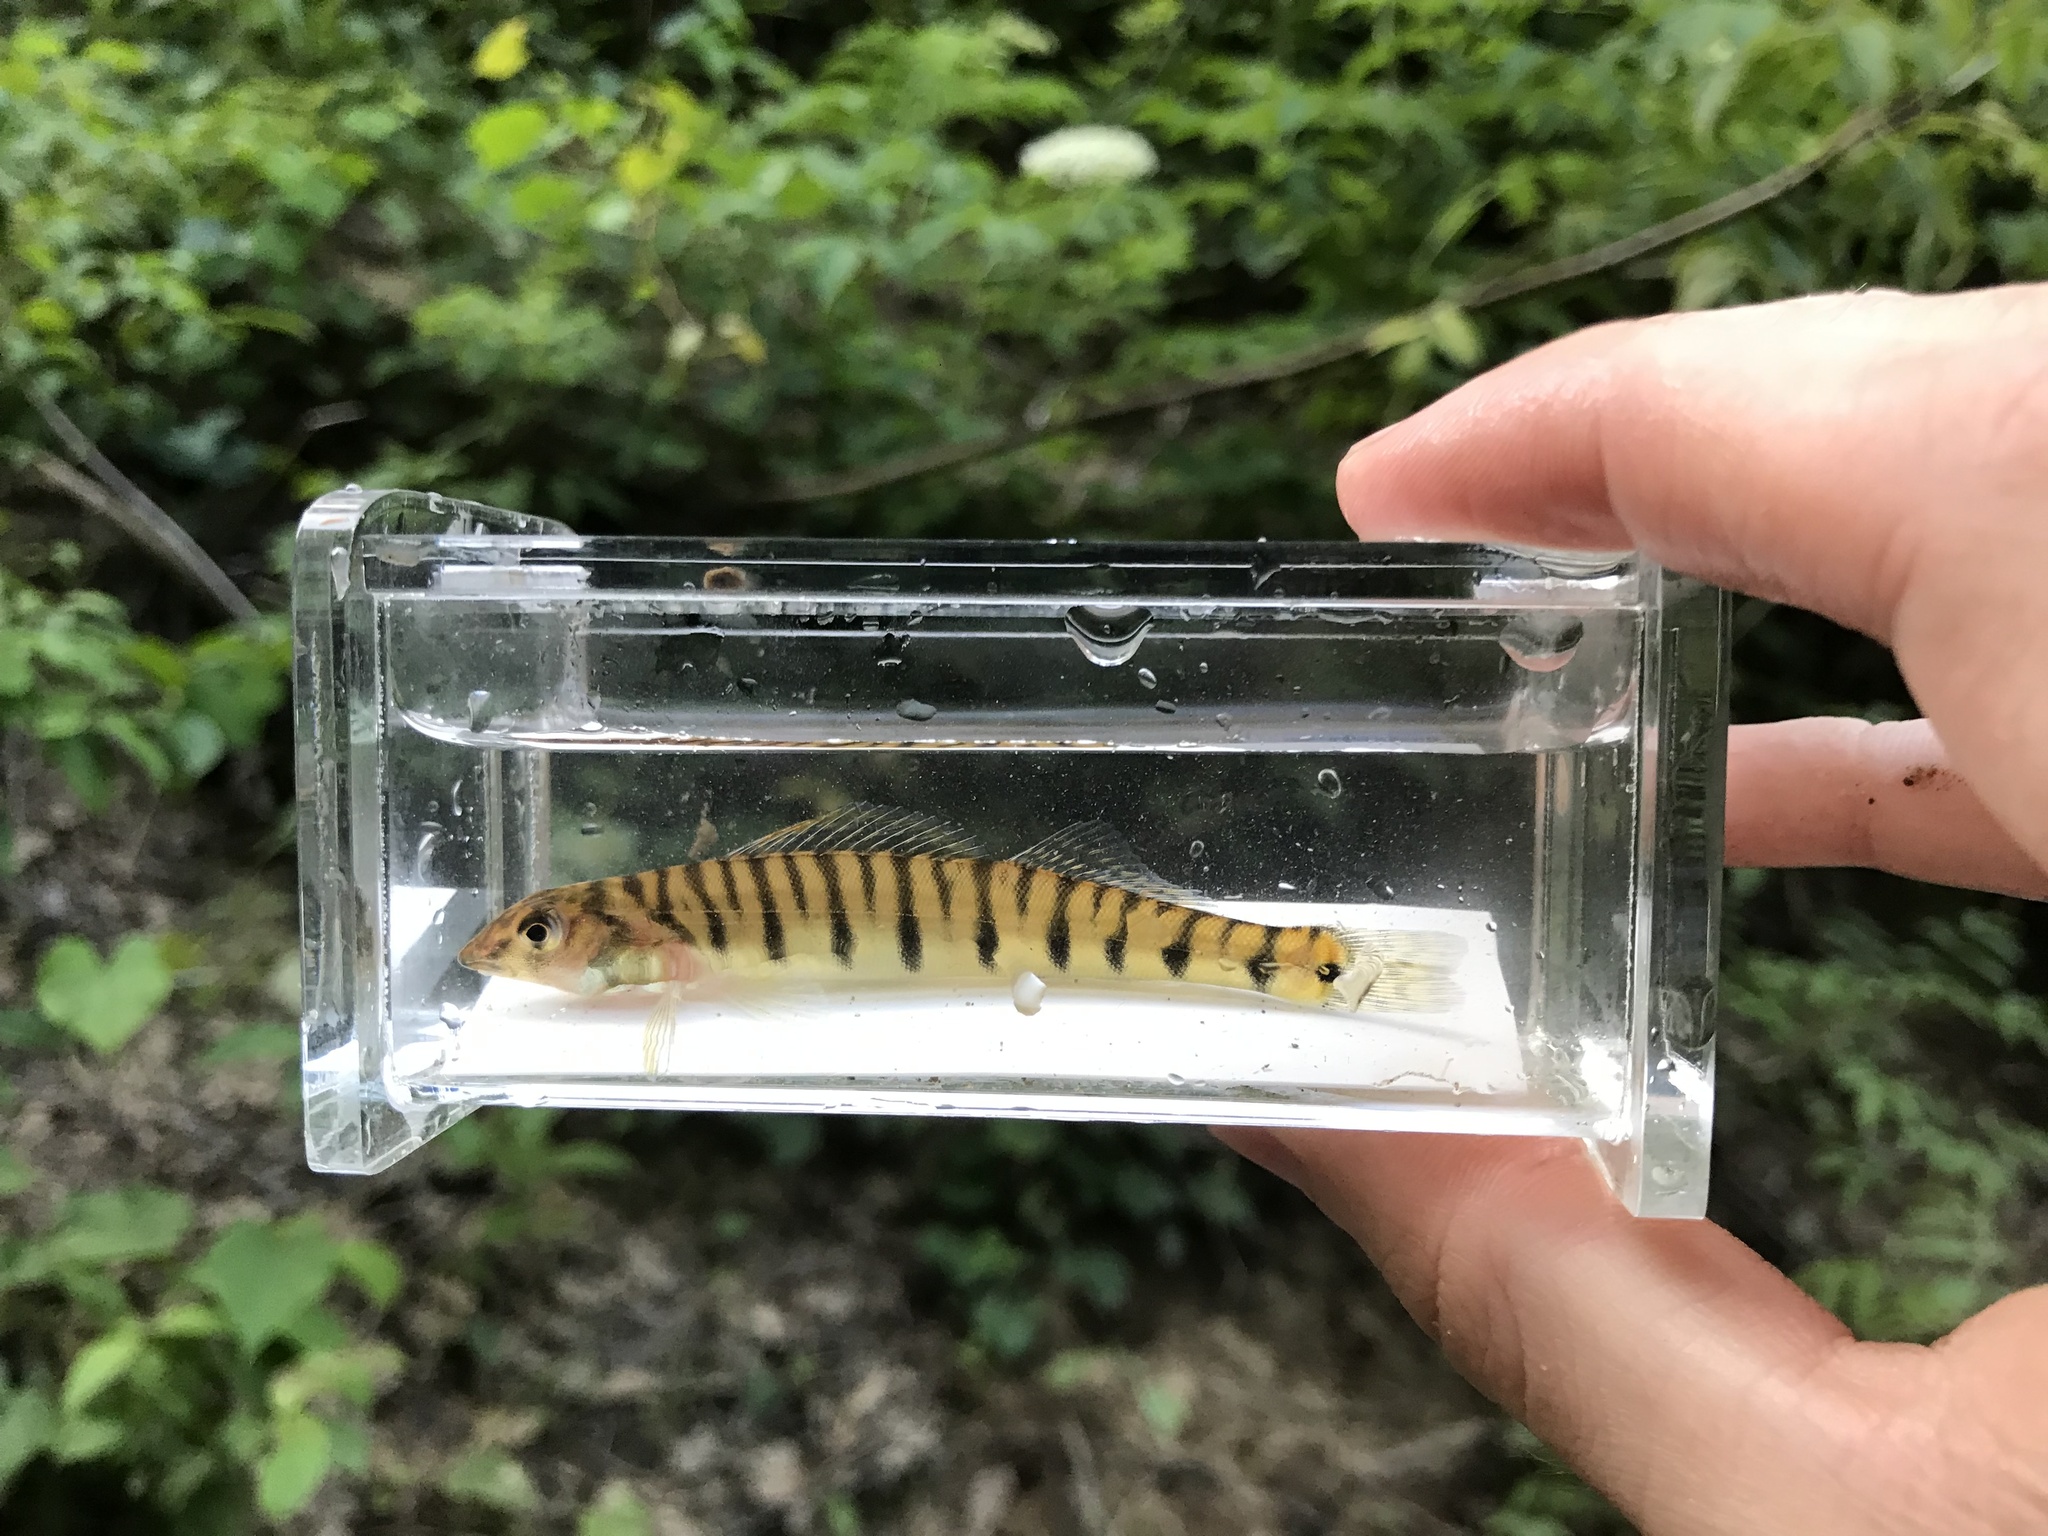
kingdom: Animalia
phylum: Chordata
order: Perciformes
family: Percidae
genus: Percina
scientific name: Percina kathae
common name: Mobile logperch
